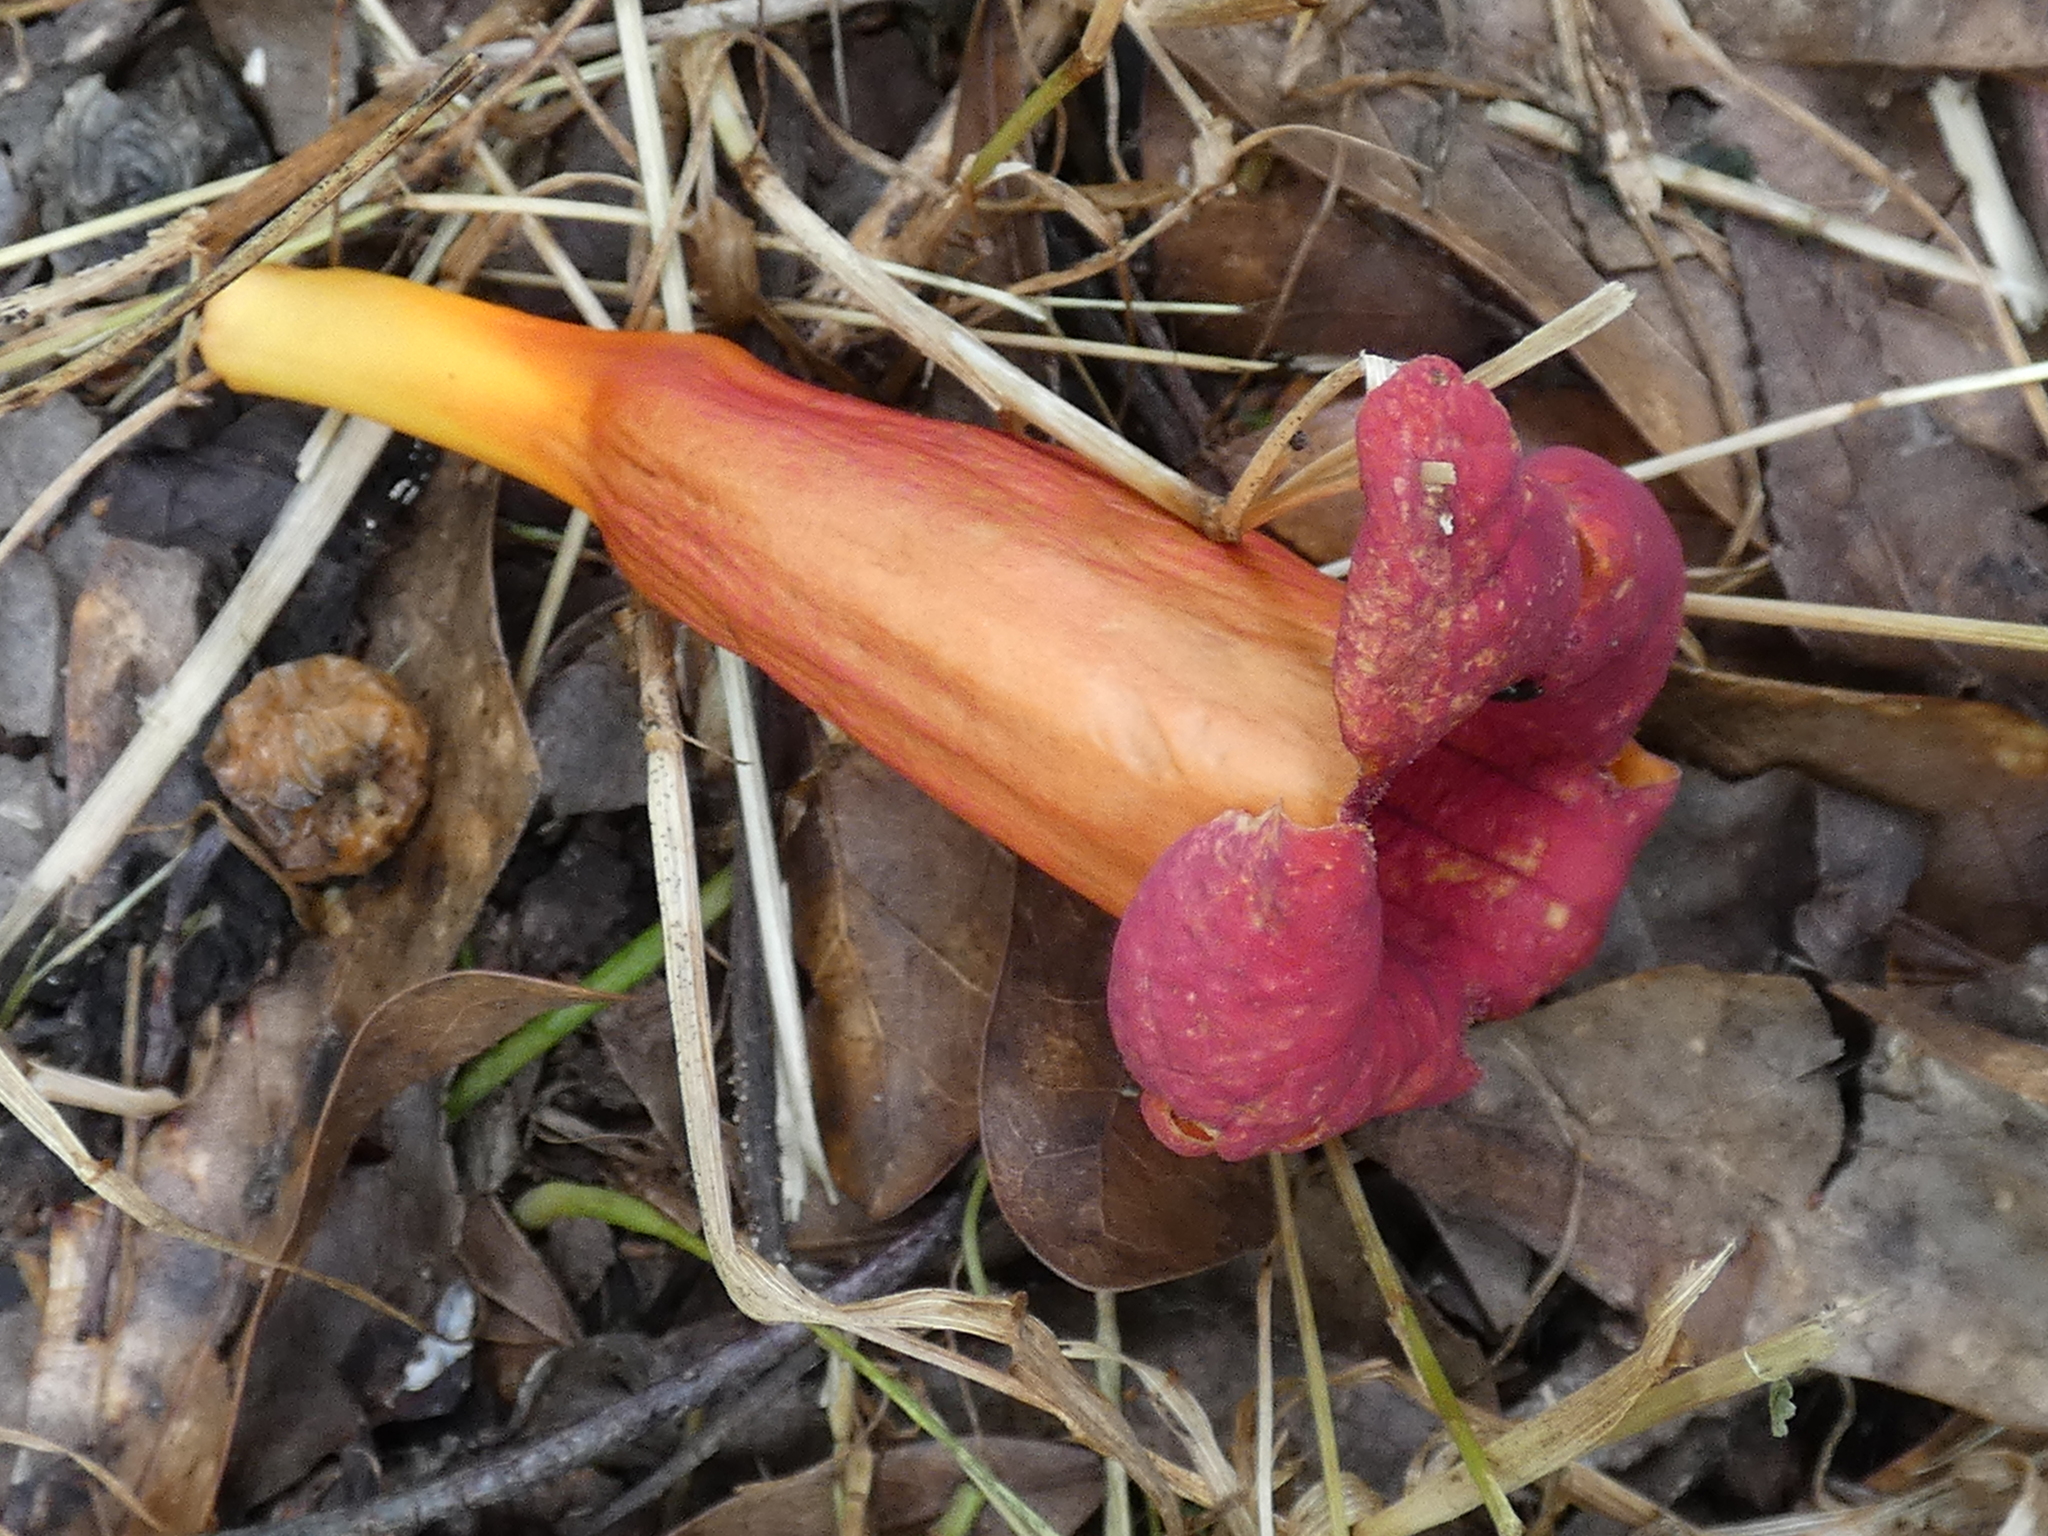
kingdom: Plantae
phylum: Tracheophyta
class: Magnoliopsida
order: Lamiales
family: Bignoniaceae
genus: Campsis
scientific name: Campsis radicans
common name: Trumpet-creeper
